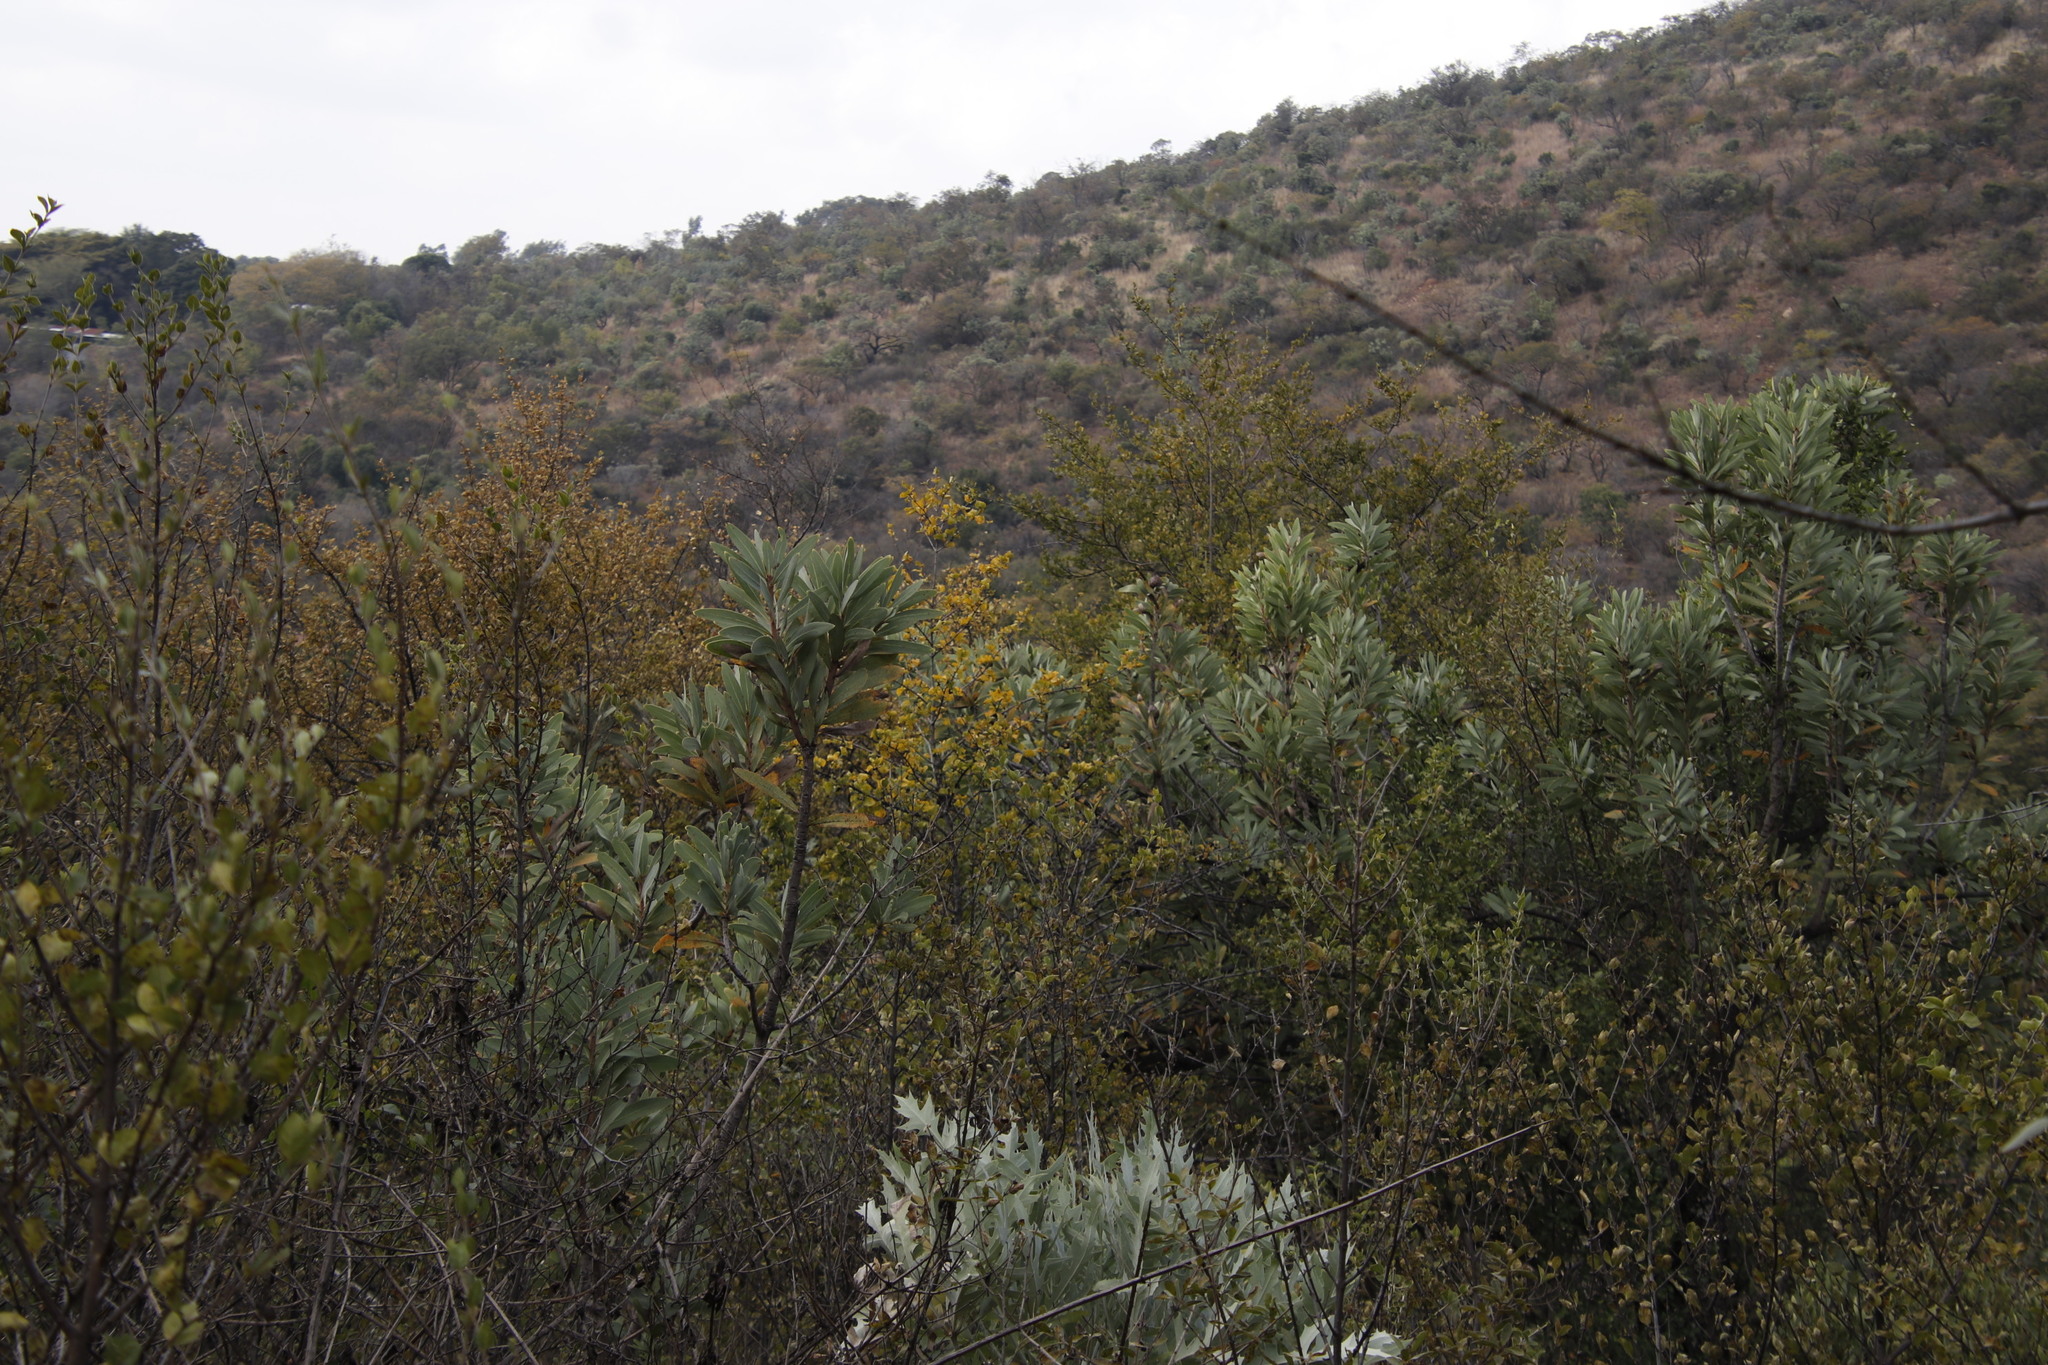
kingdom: Plantae
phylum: Tracheophyta
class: Magnoliopsida
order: Proteales
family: Proteaceae
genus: Protea
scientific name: Protea caffra
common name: Common sugarbush
